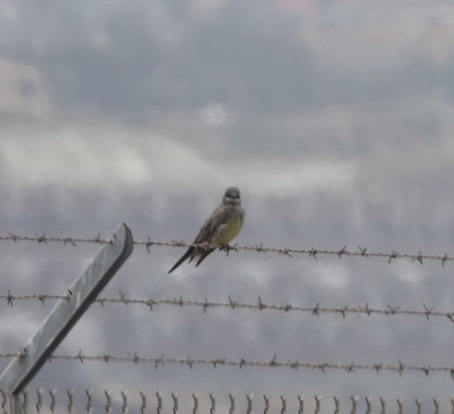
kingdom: Animalia
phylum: Chordata
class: Aves
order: Passeriformes
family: Tyrannidae
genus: Tyrannus
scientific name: Tyrannus vociferans
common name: Cassin's kingbird
